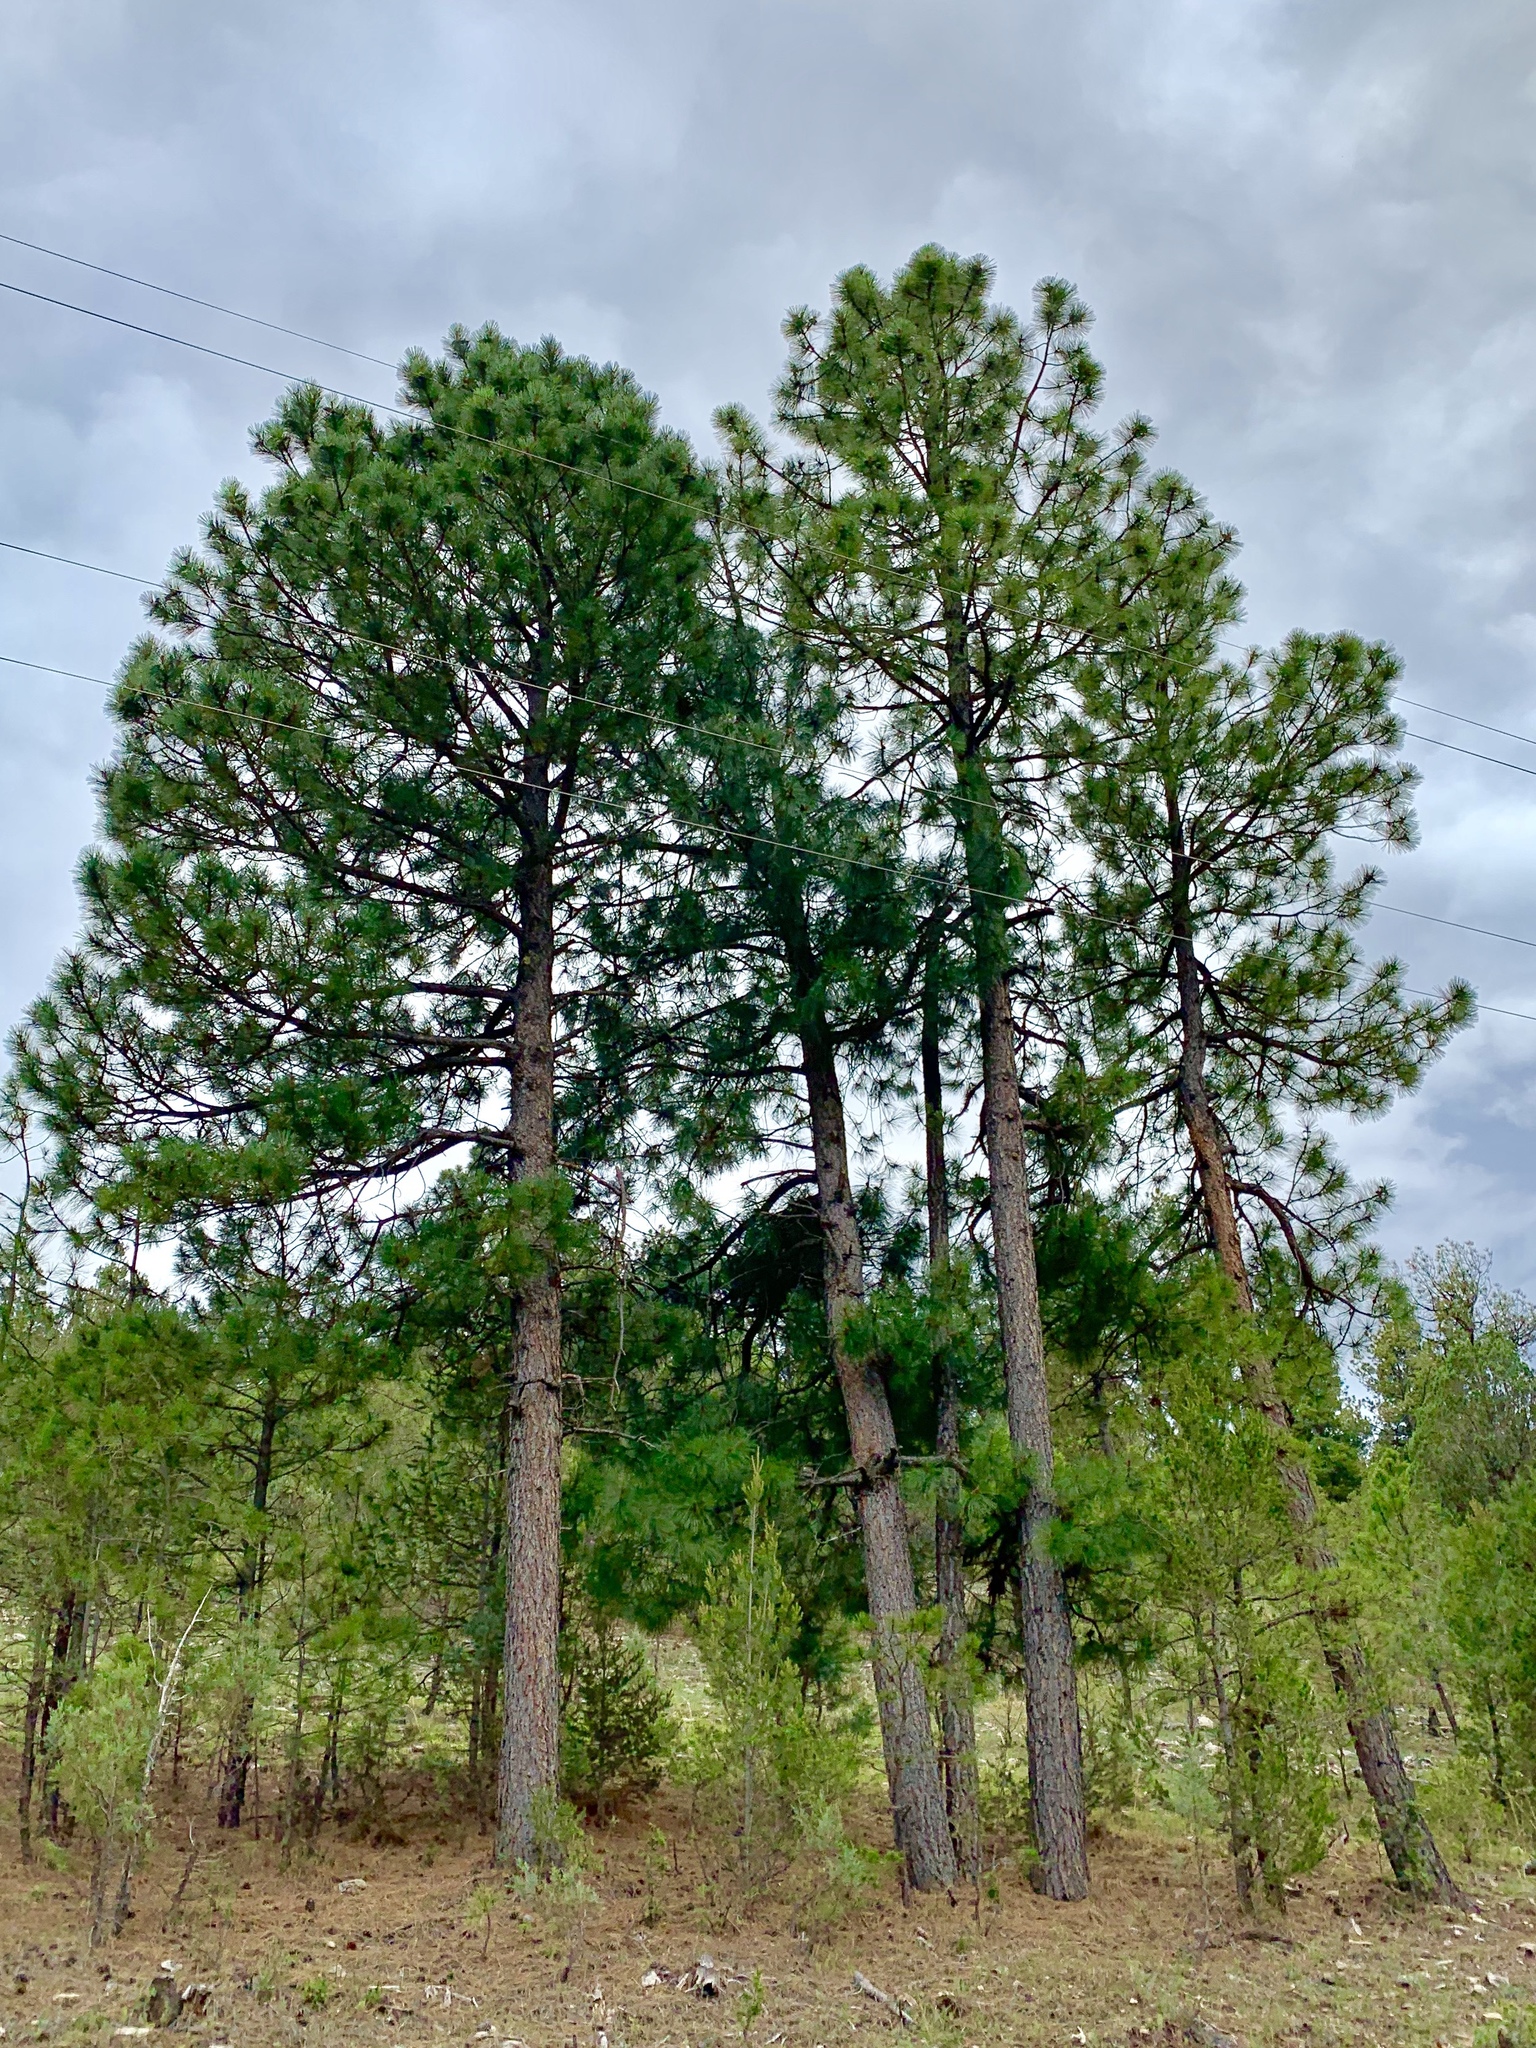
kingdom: Plantae
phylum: Tracheophyta
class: Pinopsida
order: Pinales
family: Pinaceae
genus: Pinus
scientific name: Pinus ponderosa
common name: Western yellow-pine
